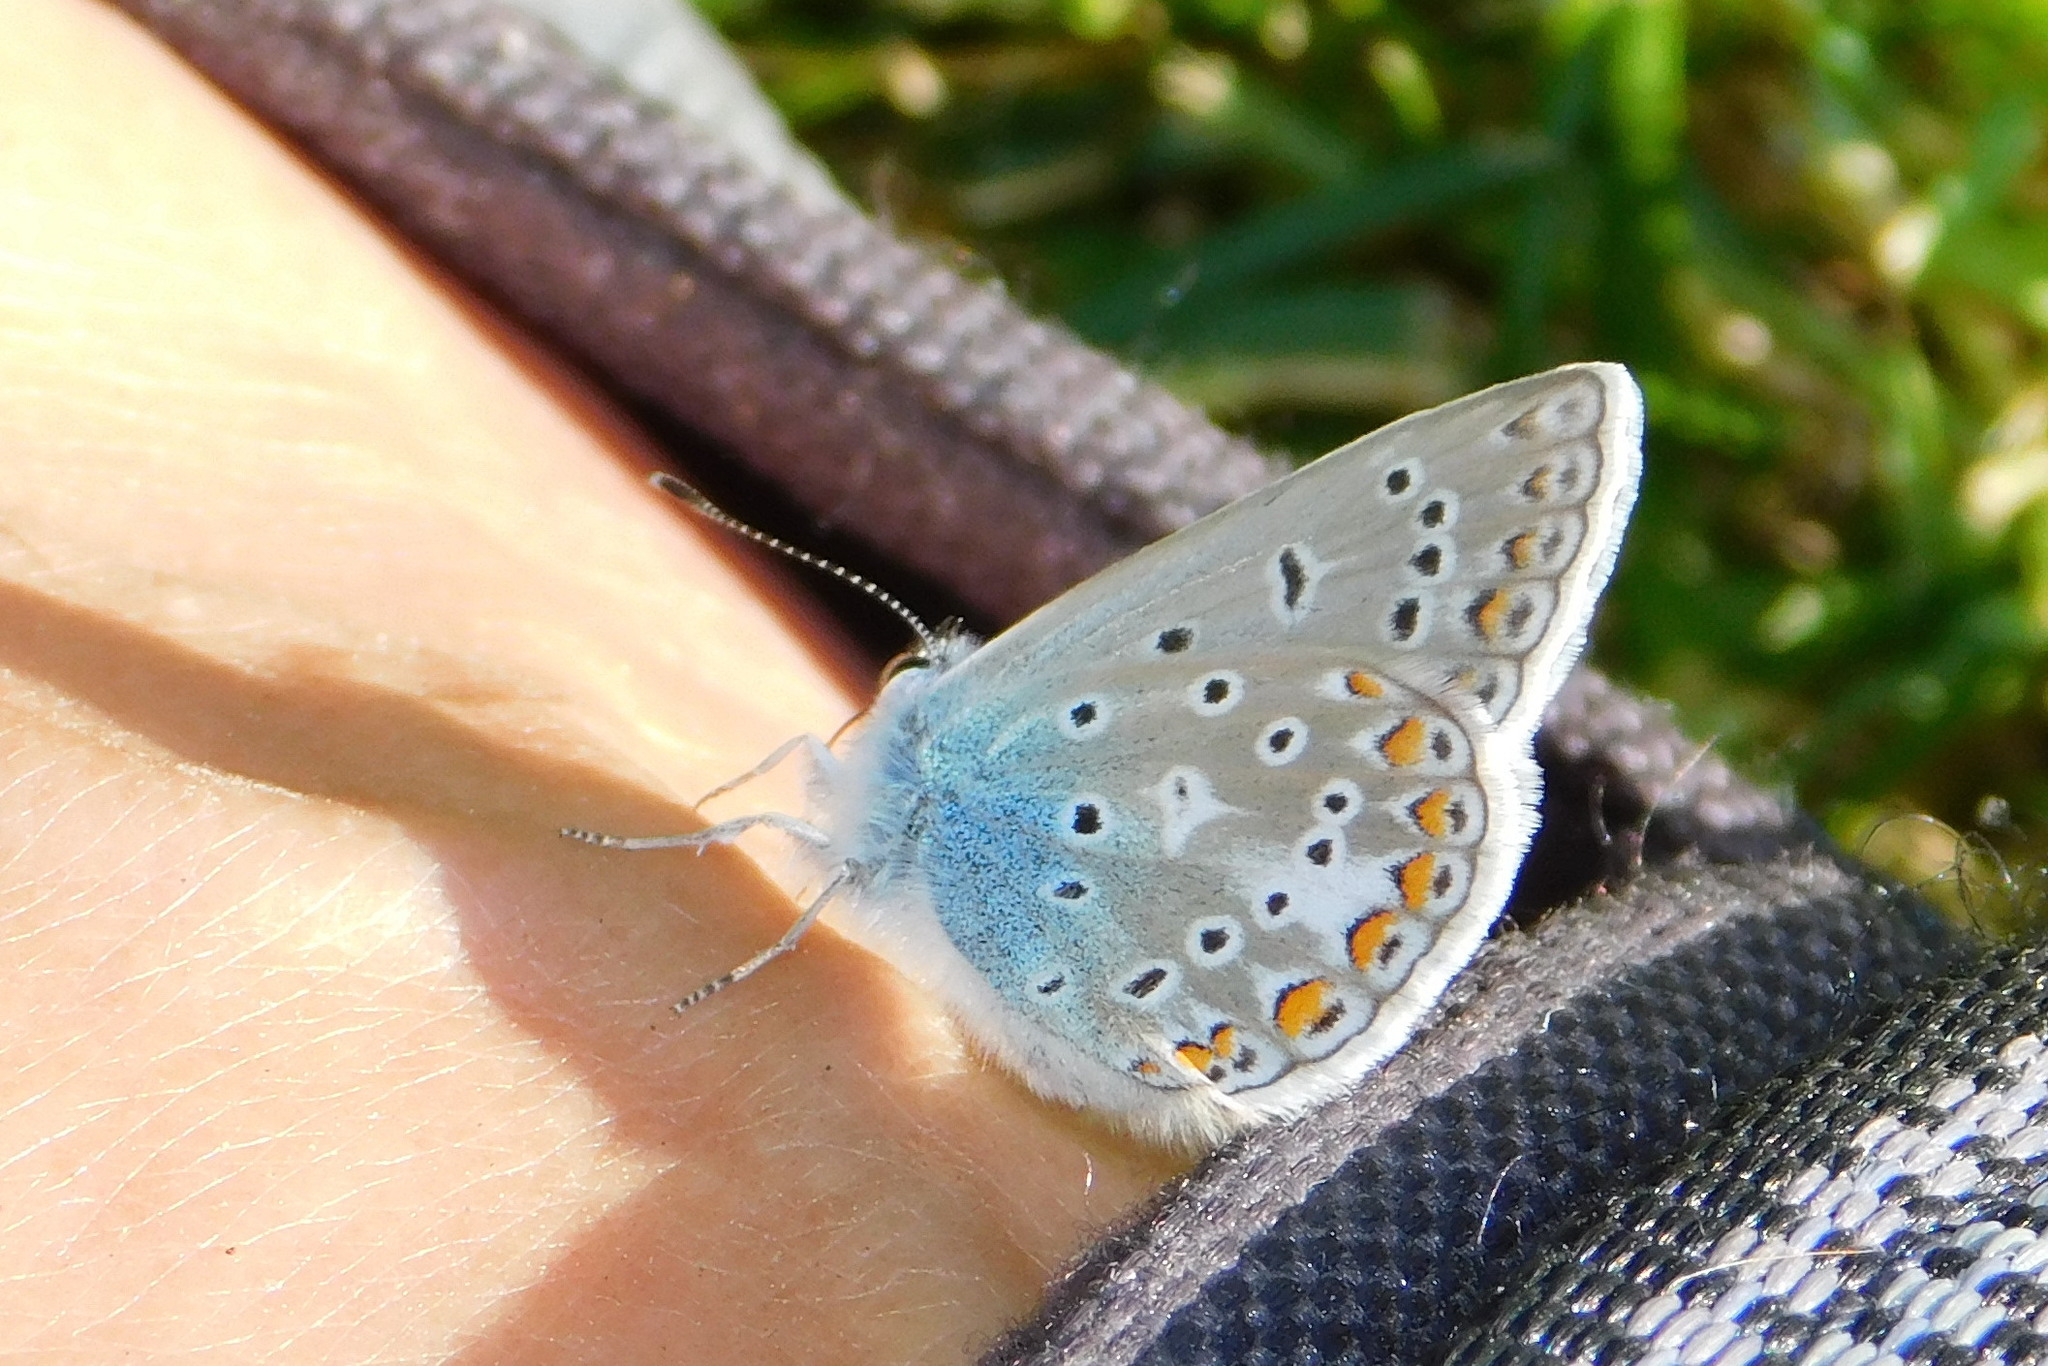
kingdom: Animalia
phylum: Arthropoda
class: Insecta
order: Lepidoptera
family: Lycaenidae
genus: Polyommatus
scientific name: Polyommatus icarus
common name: Common blue
